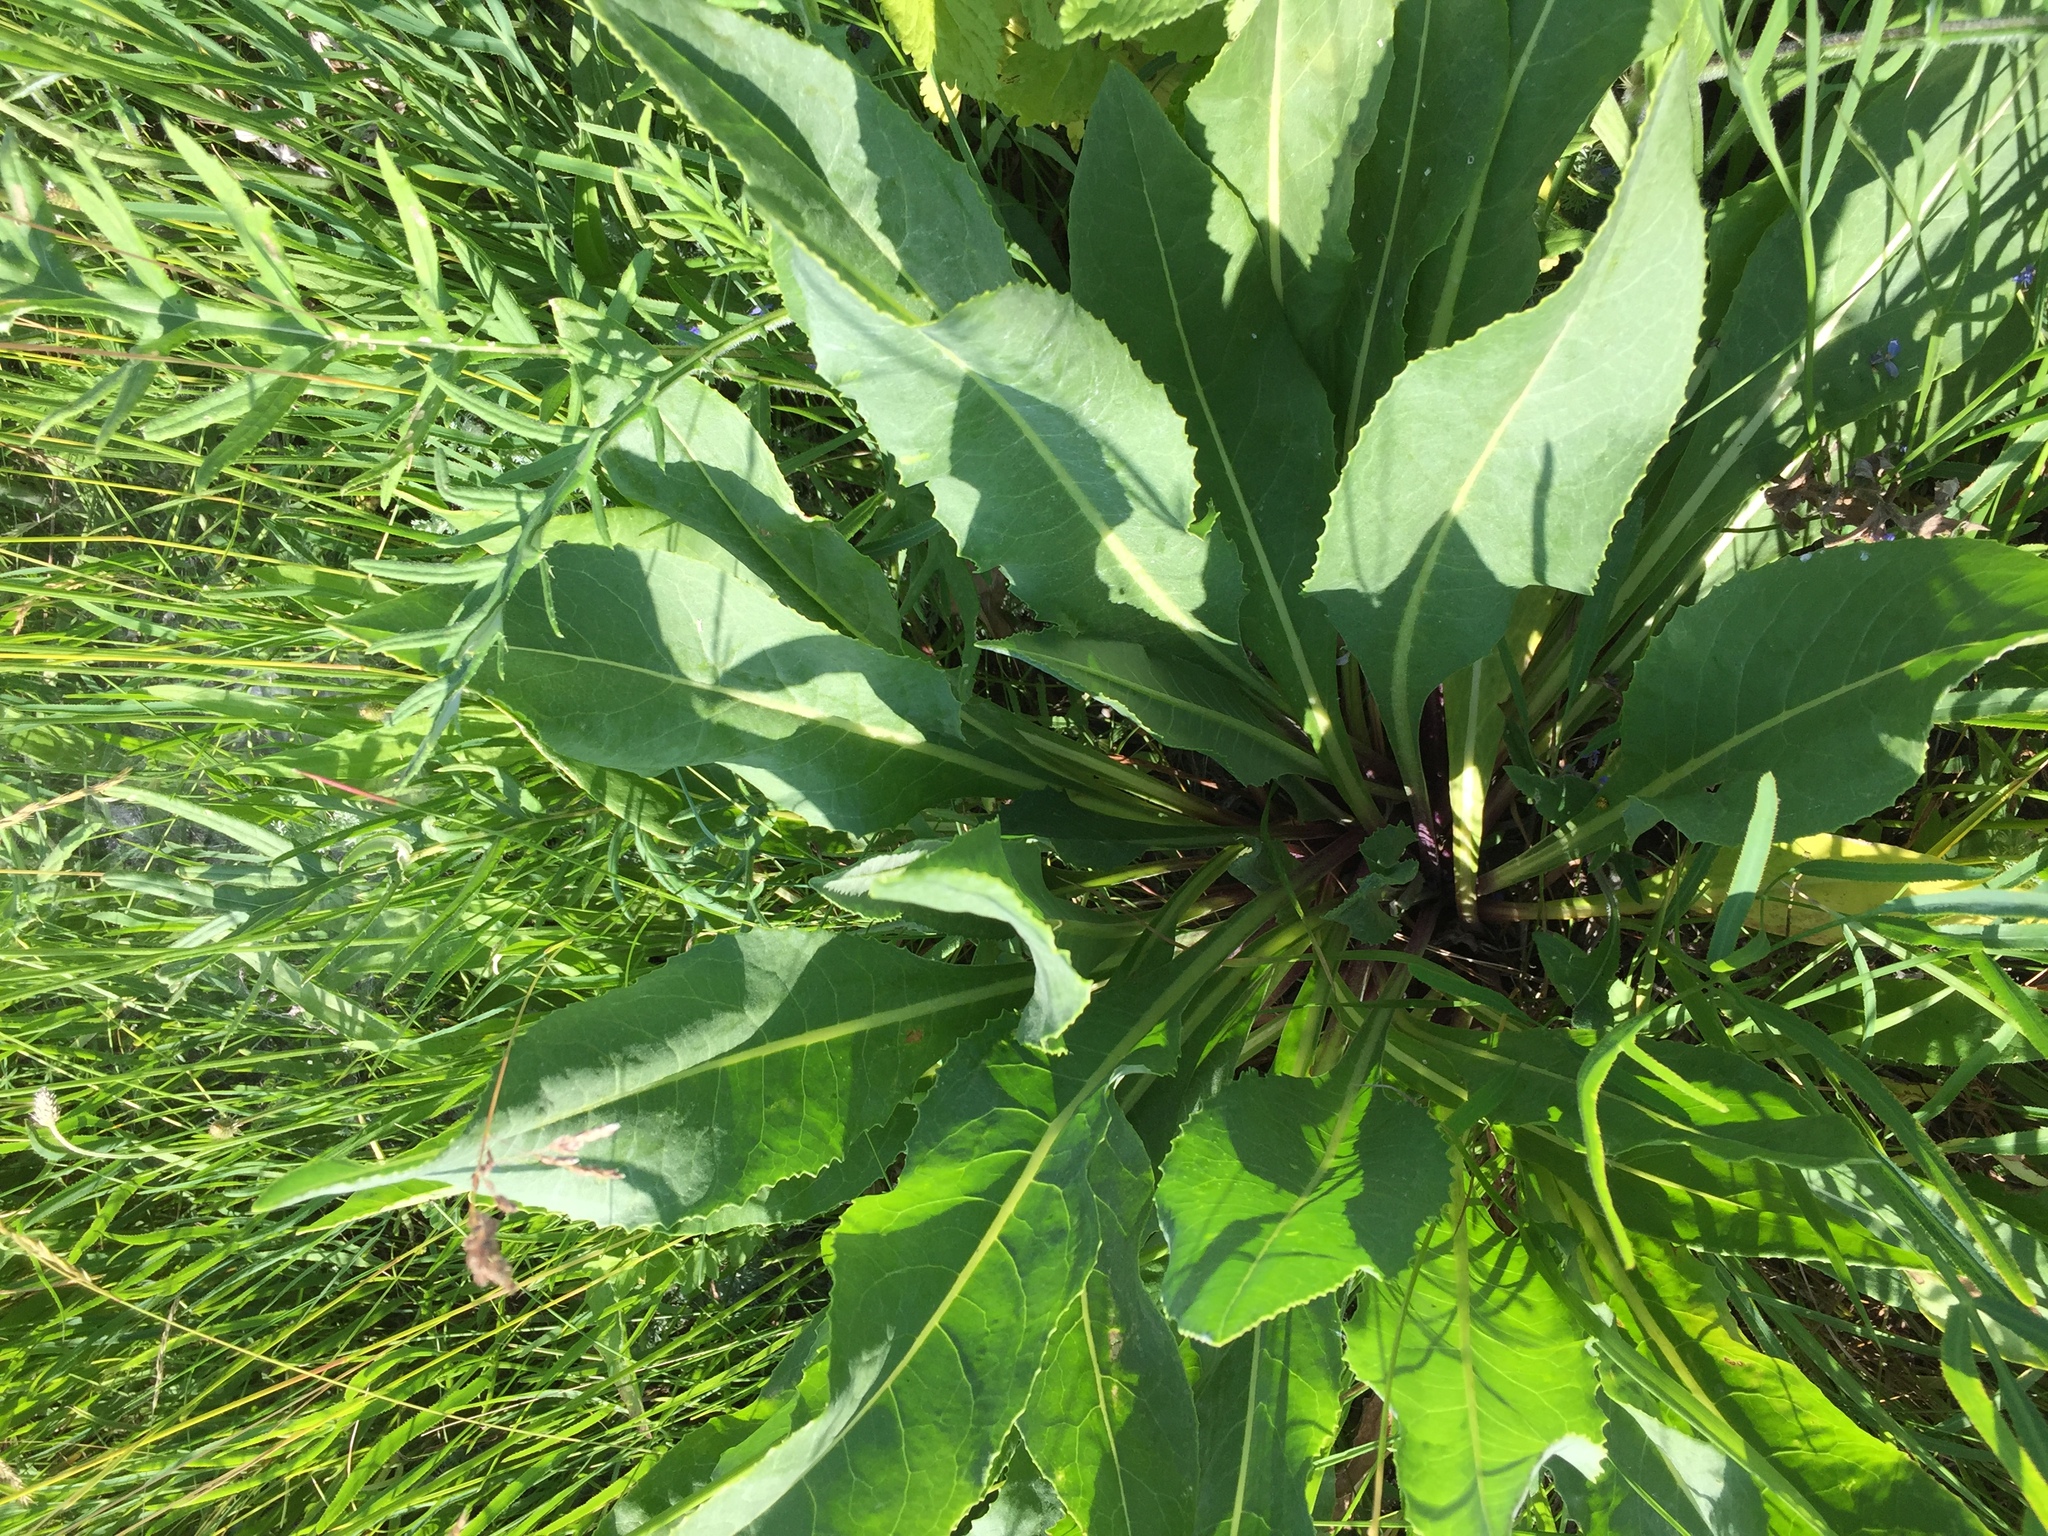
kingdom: Plantae
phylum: Tracheophyta
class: Magnoliopsida
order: Asterales
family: Asteraceae
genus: Senecio
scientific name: Senecio doria
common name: Golden ragwort
